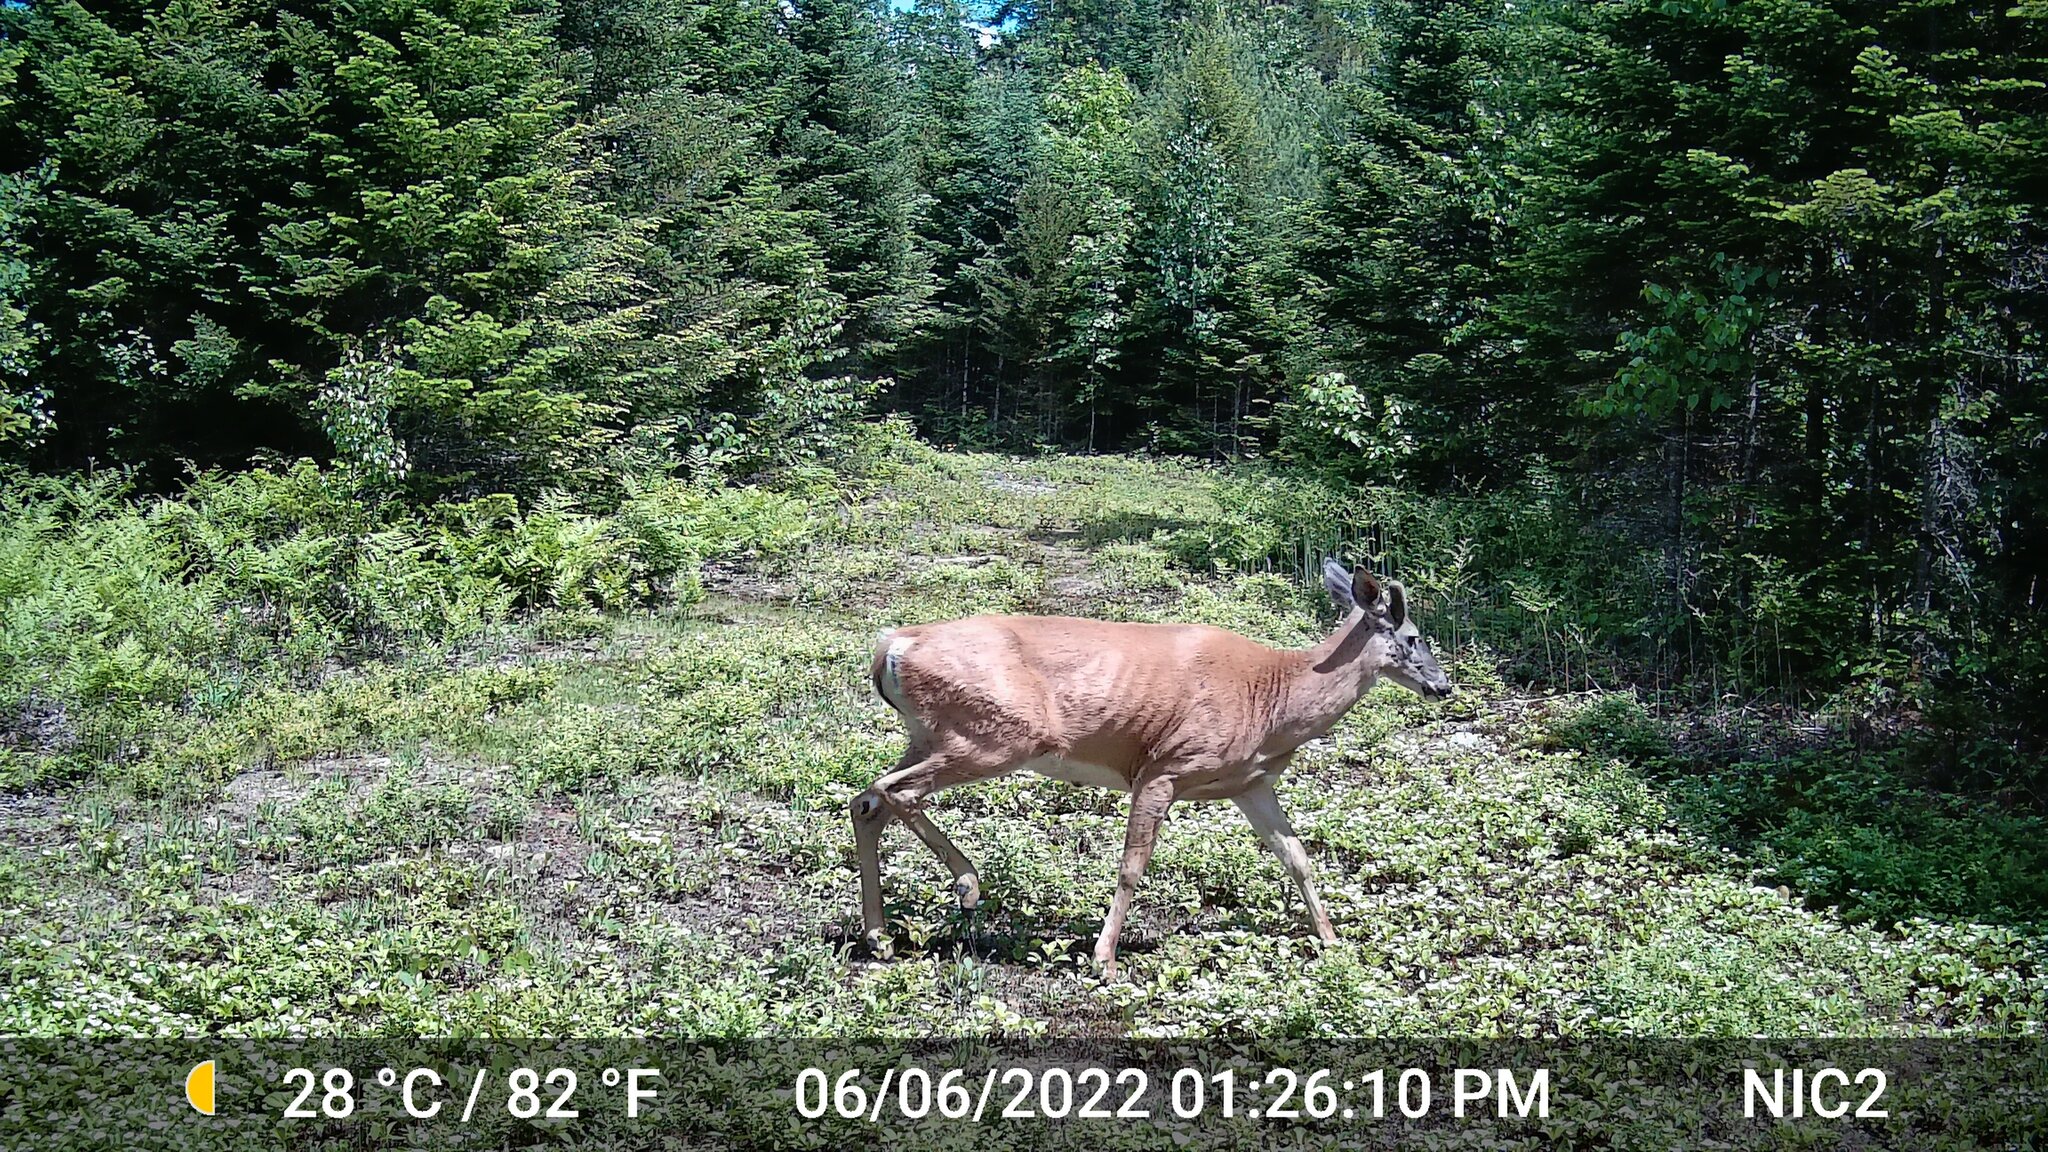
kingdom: Animalia
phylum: Chordata
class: Mammalia
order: Artiodactyla
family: Cervidae
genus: Odocoileus
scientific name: Odocoileus virginianus
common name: White-tailed deer
